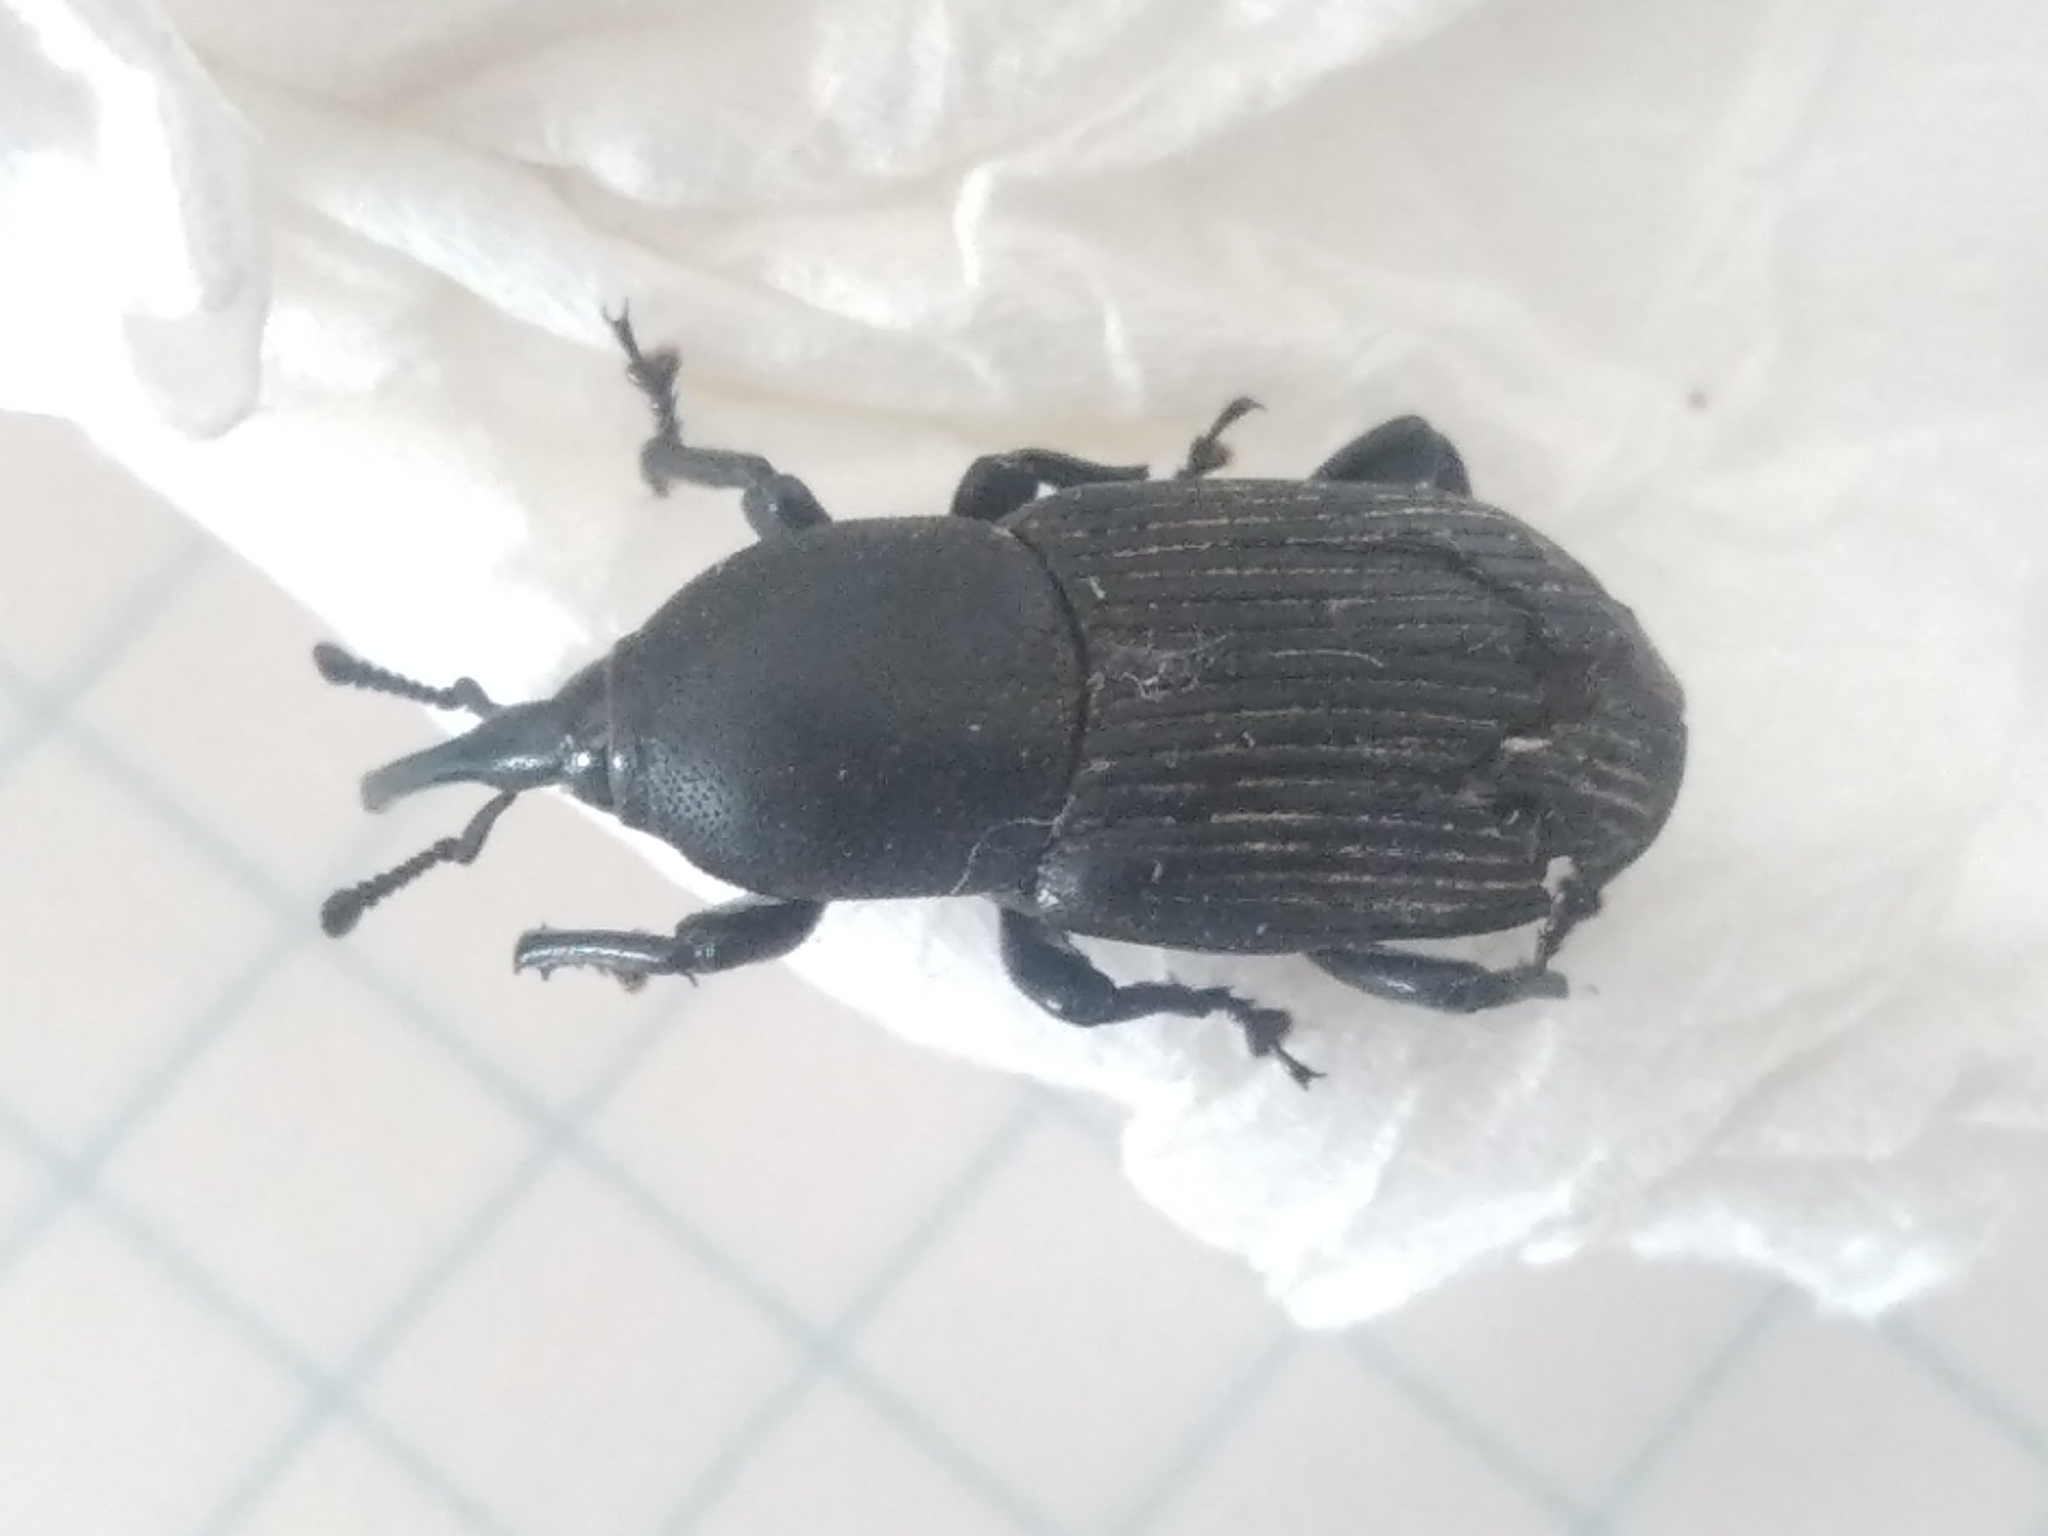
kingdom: Animalia
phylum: Arthropoda
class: Insecta
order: Coleoptera
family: Dryophthoridae
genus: Scyphophorus
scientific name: Scyphophorus acupunctatus
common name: Weevil
